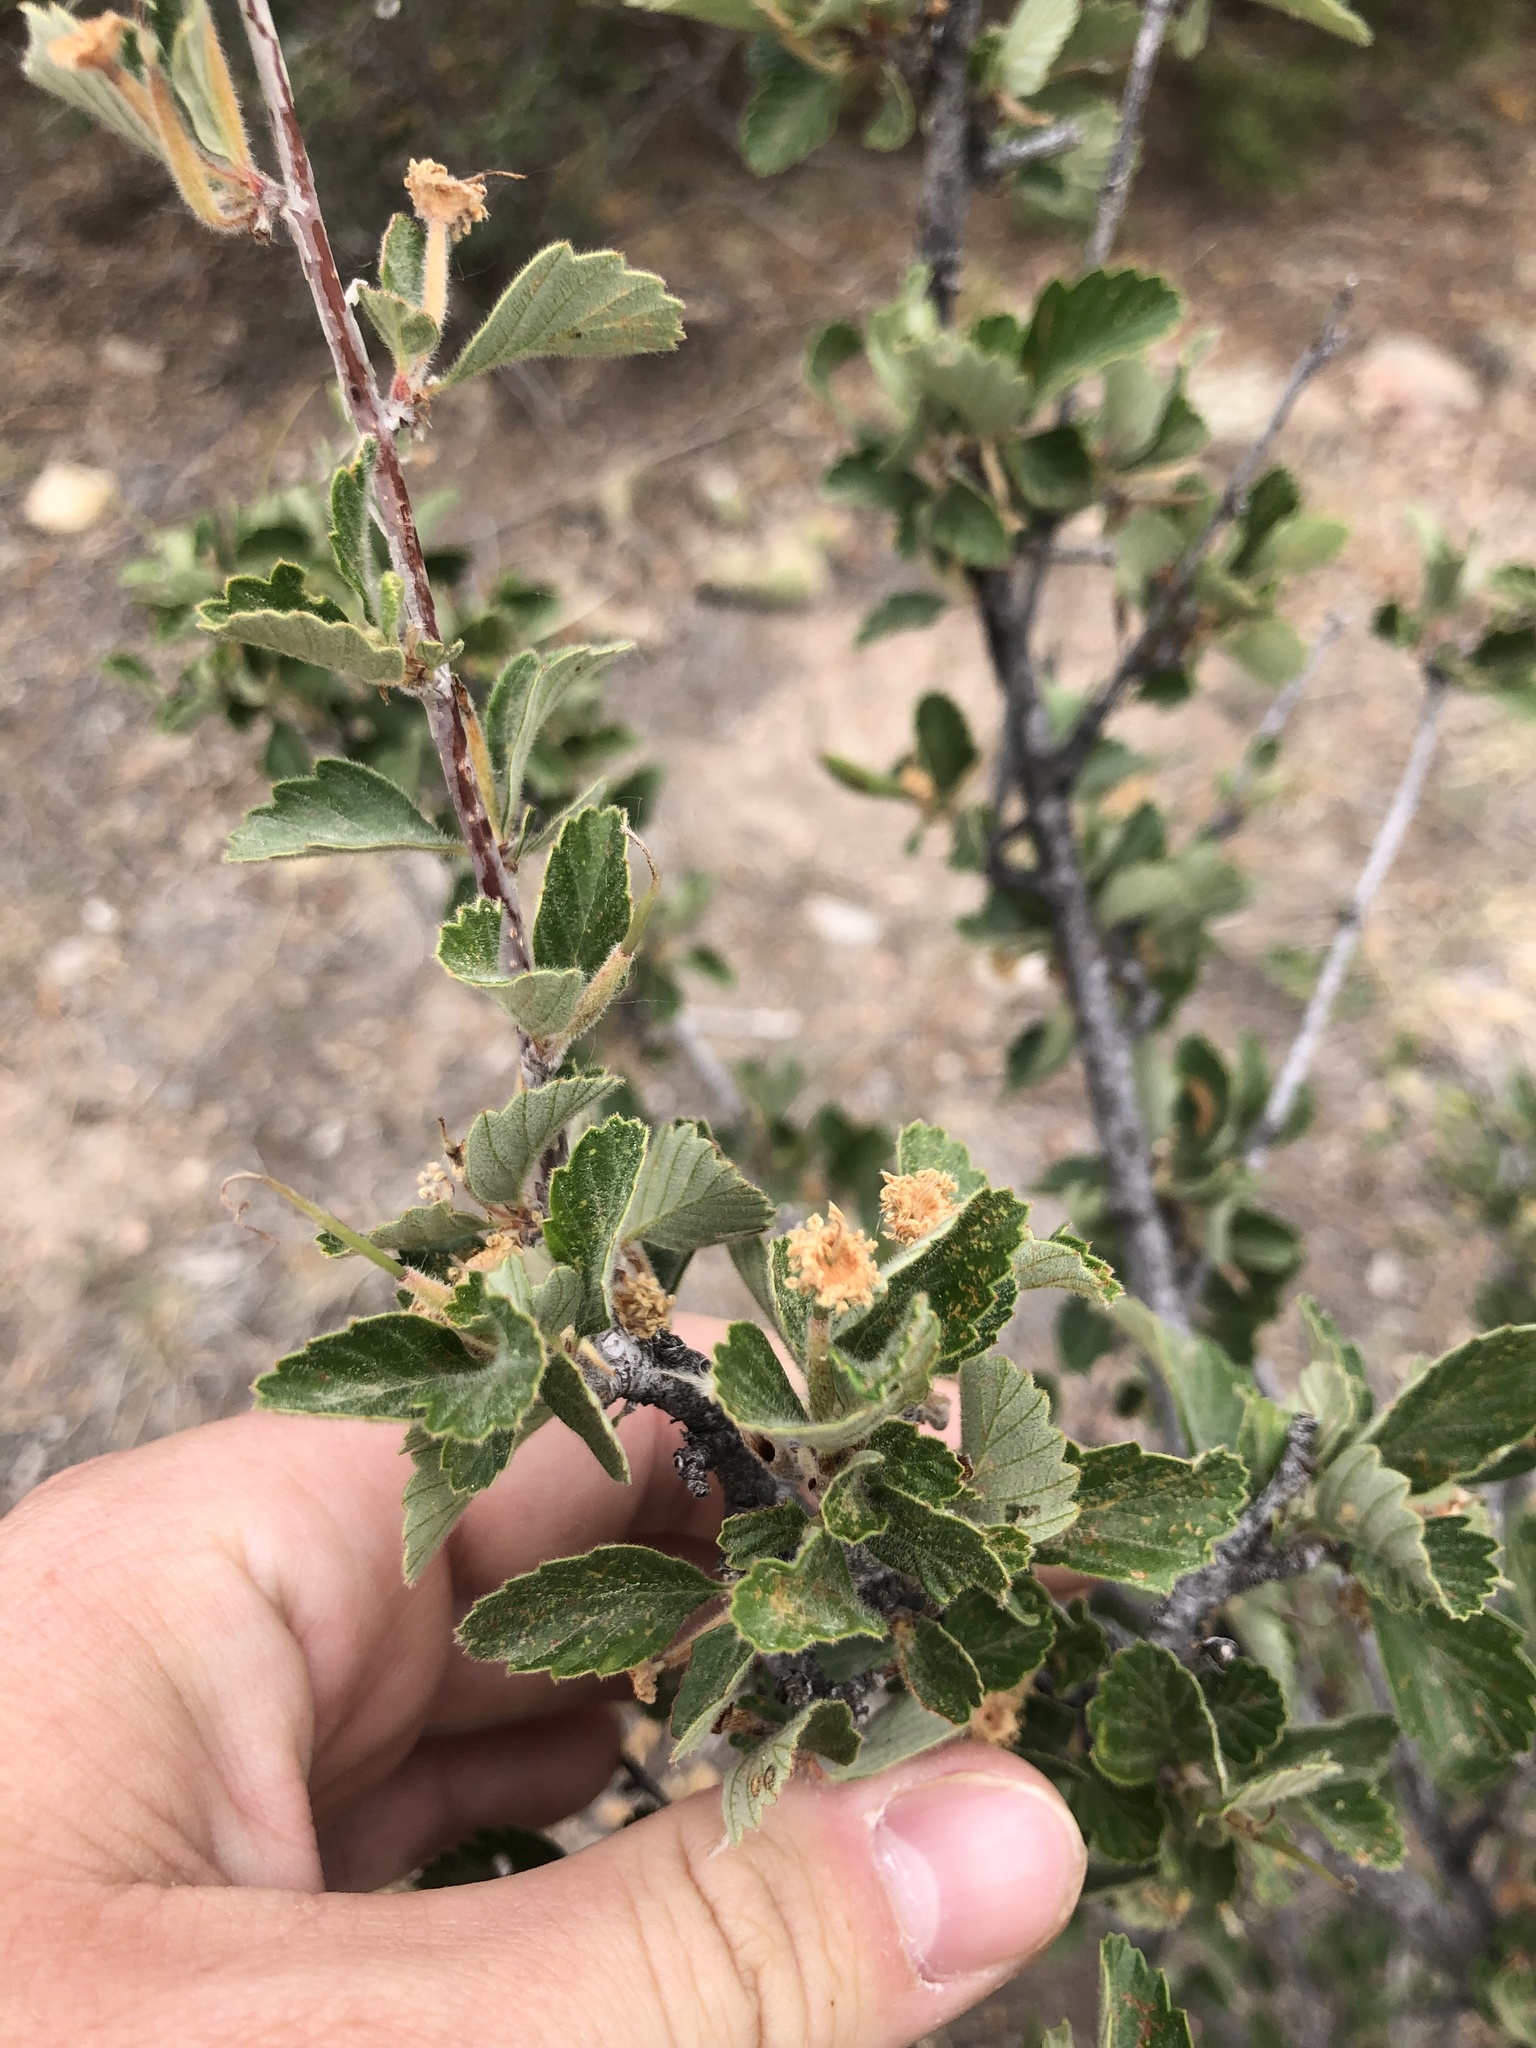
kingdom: Plantae
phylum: Tracheophyta
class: Magnoliopsida
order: Rosales
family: Rosaceae
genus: Cercocarpus
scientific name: Cercocarpus montanus
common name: Alder-leaf cercocarpus
